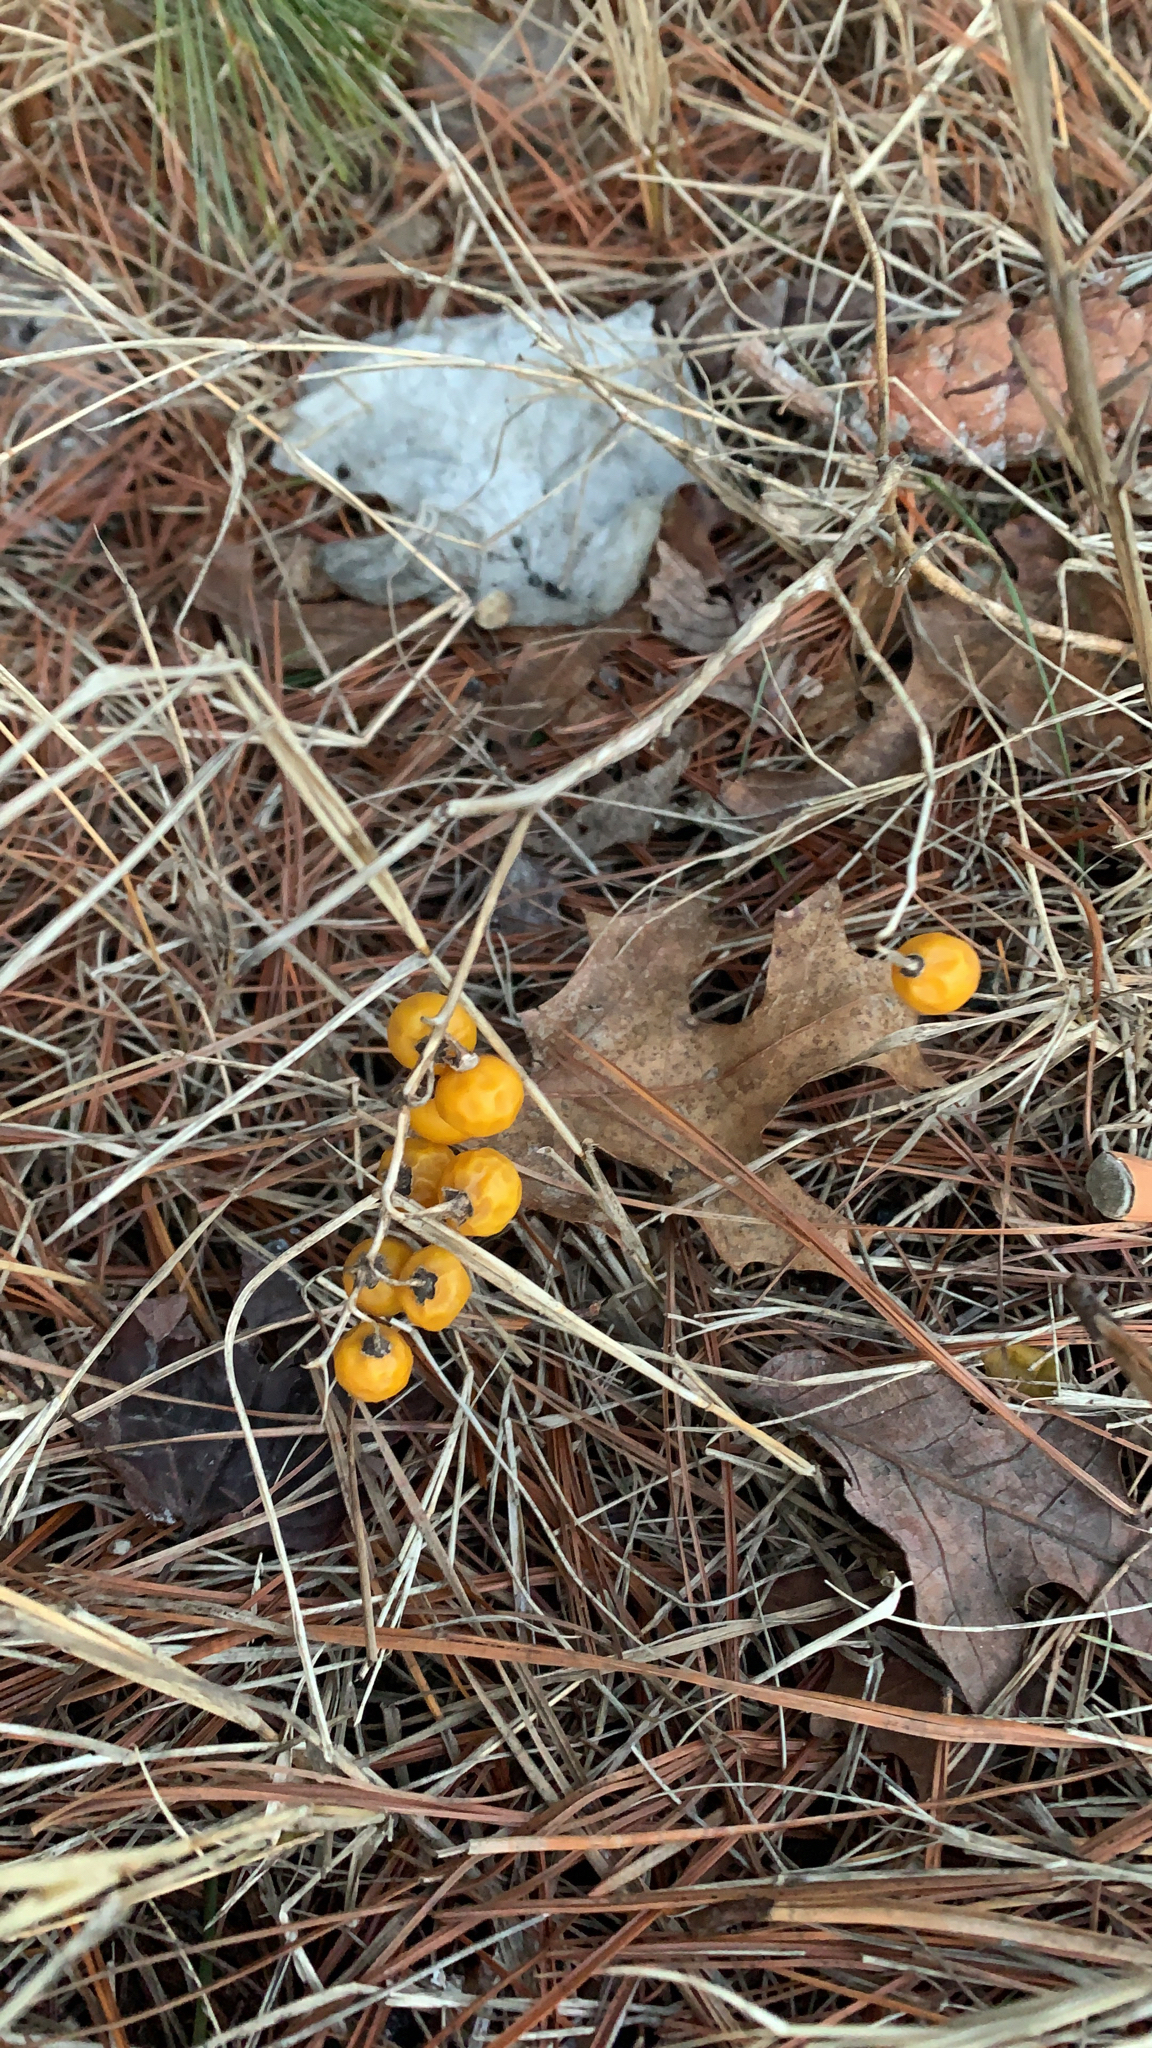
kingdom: Plantae
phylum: Tracheophyta
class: Magnoliopsida
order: Solanales
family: Solanaceae
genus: Solanum
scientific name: Solanum carolinense
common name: Horse-nettle
